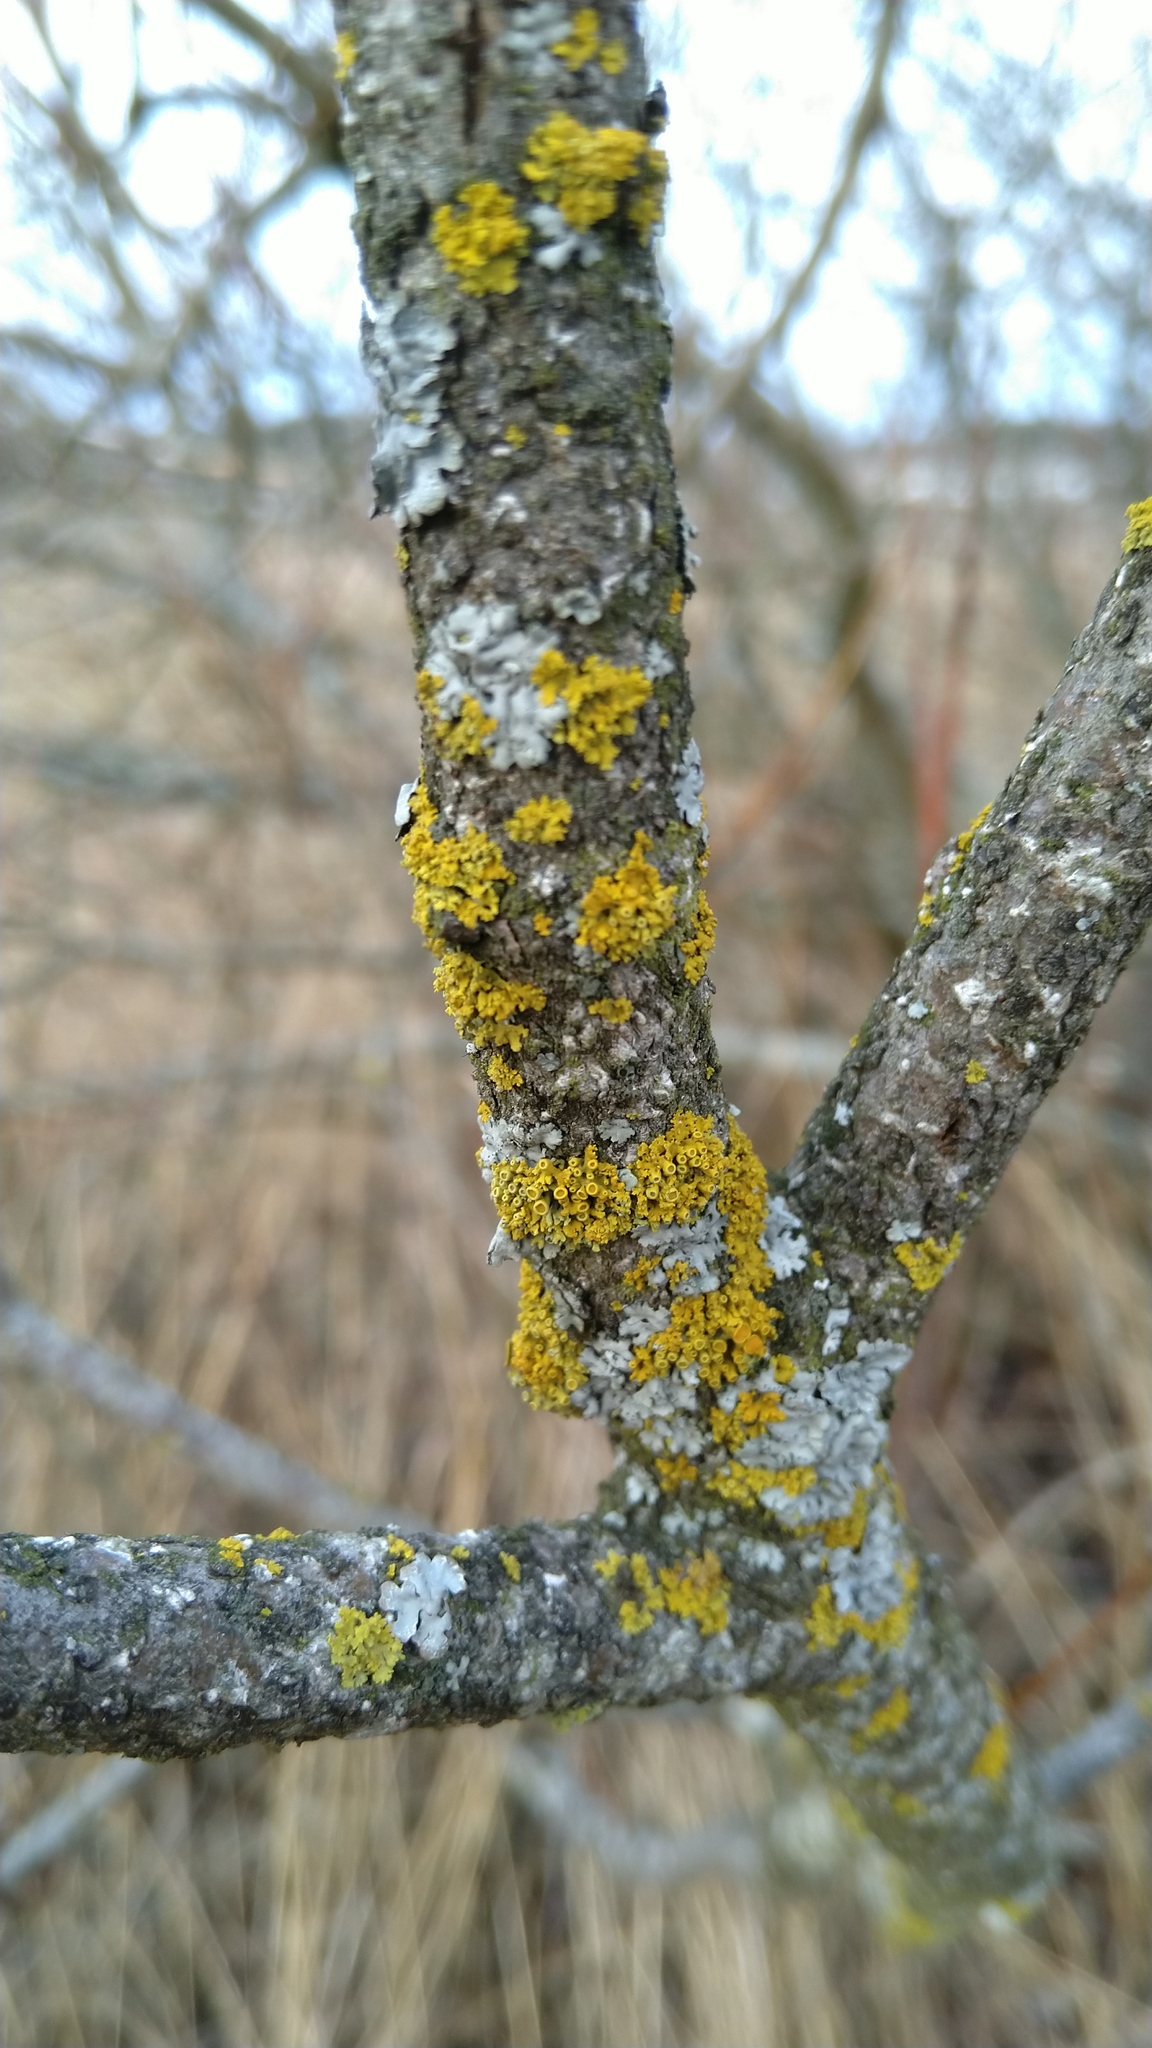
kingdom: Fungi
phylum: Ascomycota
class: Lecanoromycetes
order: Teloschistales
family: Teloschistaceae
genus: Polycauliona
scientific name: Polycauliona polycarpa
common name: Pin-cushion sunburst lichen
